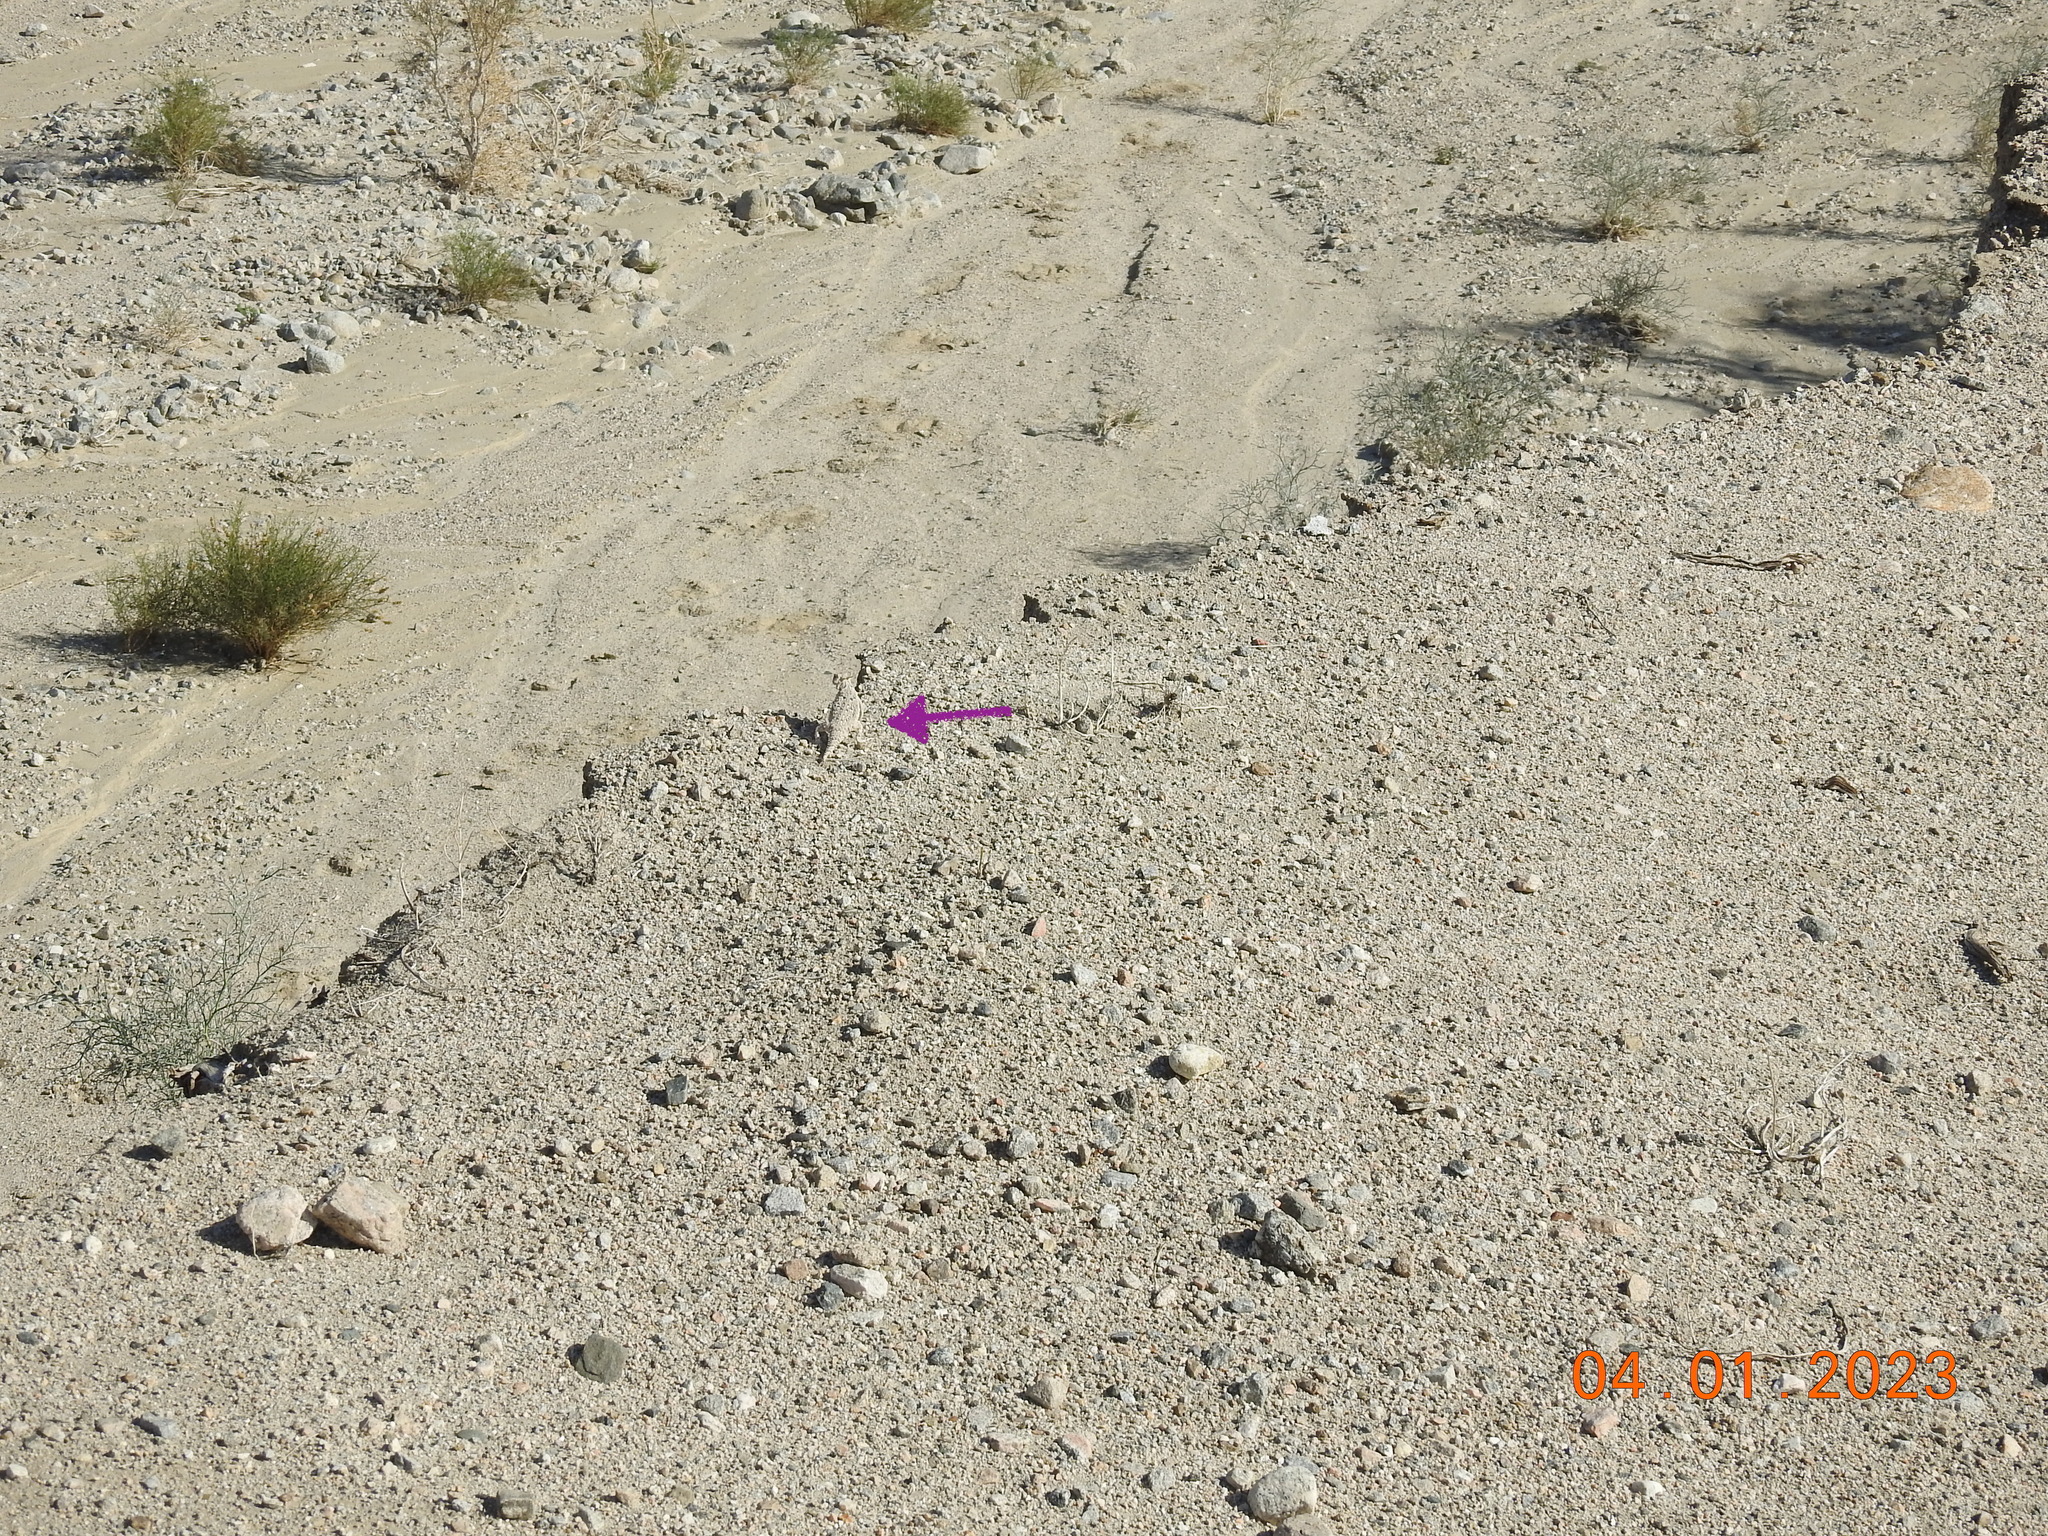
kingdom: Animalia
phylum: Chordata
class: Squamata
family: Phrynosomatidae
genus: Phrynosoma
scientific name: Phrynosoma platyrhinos
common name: Desert horned lizard
